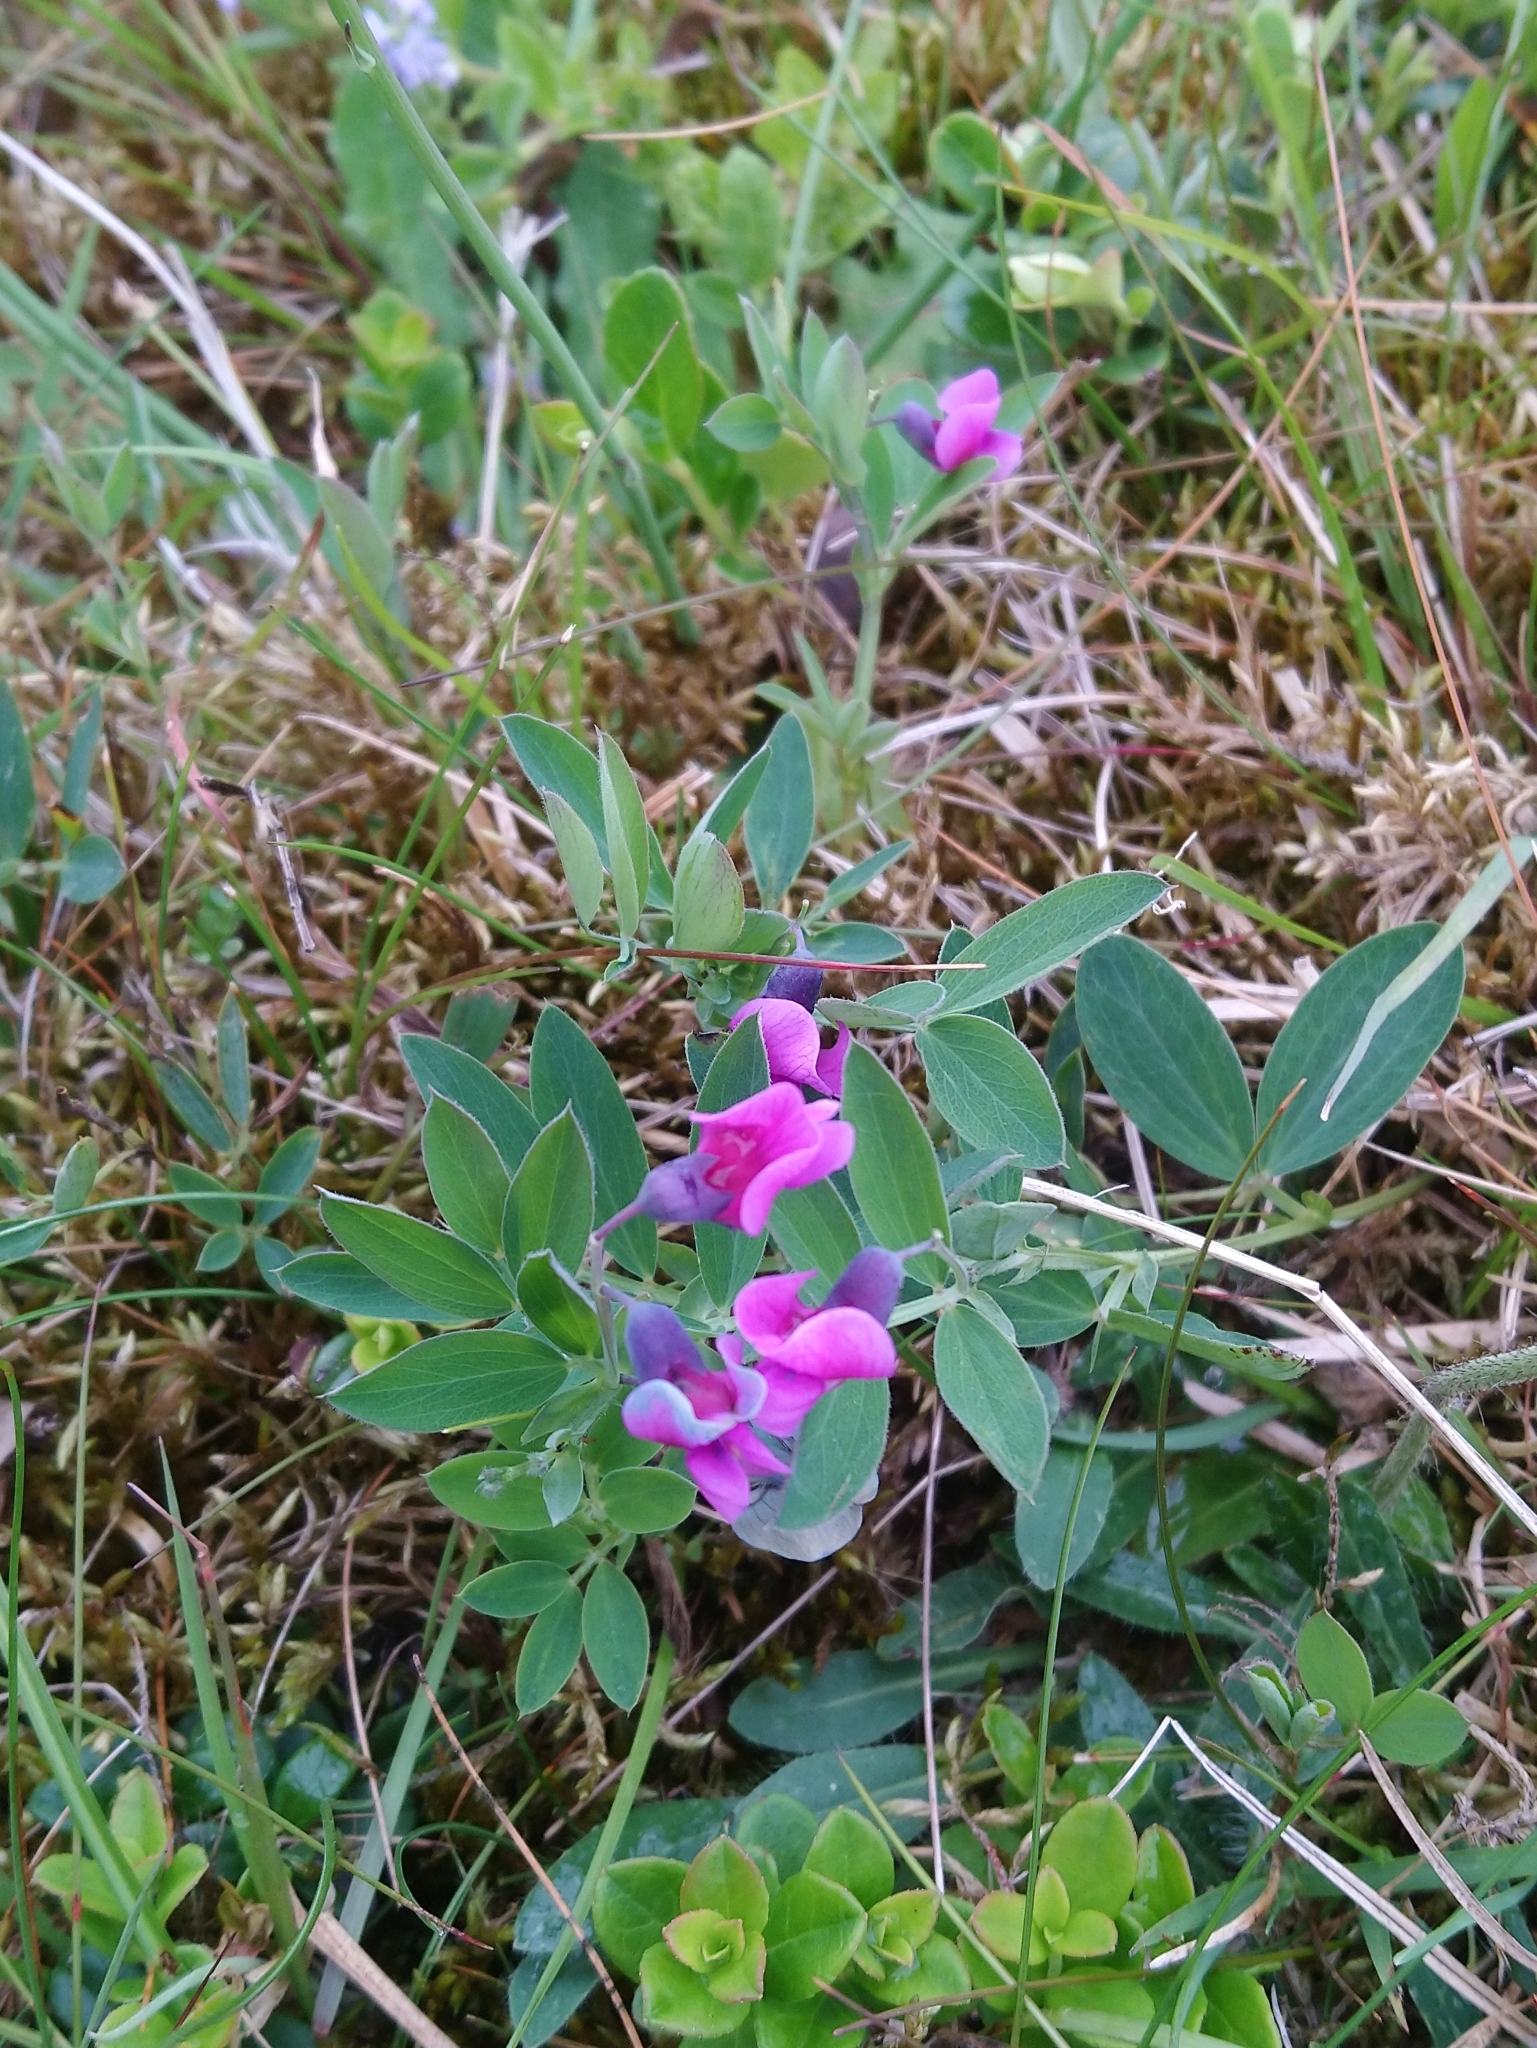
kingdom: Plantae
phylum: Tracheophyta
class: Magnoliopsida
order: Fabales
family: Fabaceae
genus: Lathyrus
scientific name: Lathyrus linifolius
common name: Bitter-vetch
